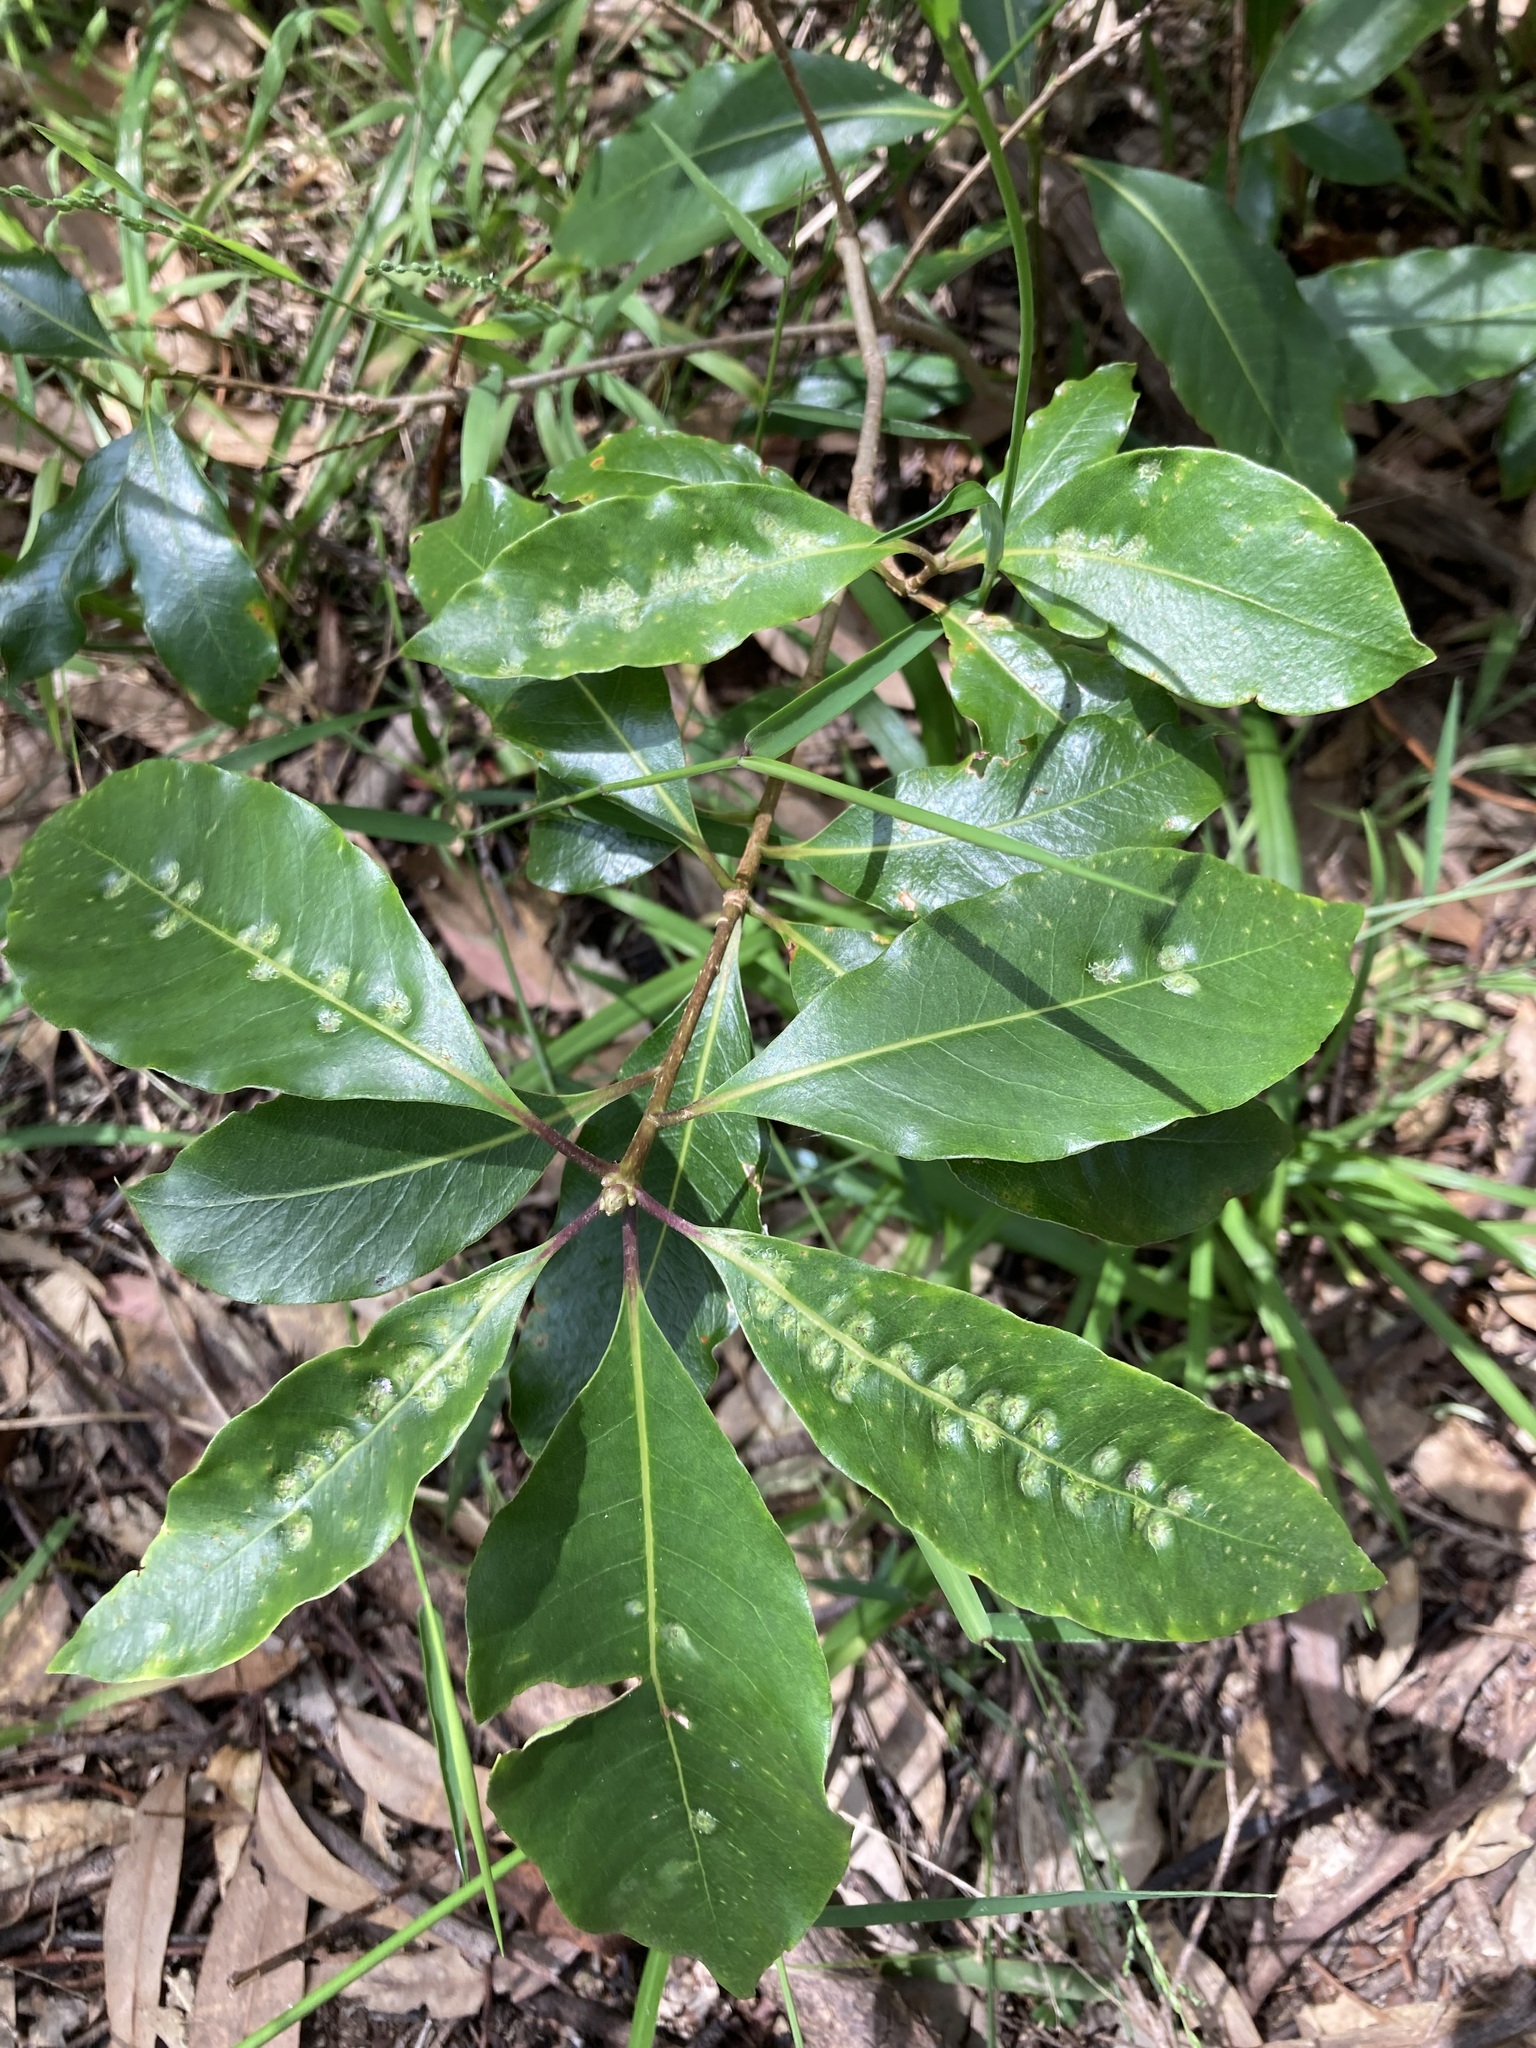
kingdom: Animalia
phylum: Arthropoda
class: Insecta
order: Diptera
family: Agromyzidae
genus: Phytoliriomyza
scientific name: Phytoliriomyza pittosporophylli
